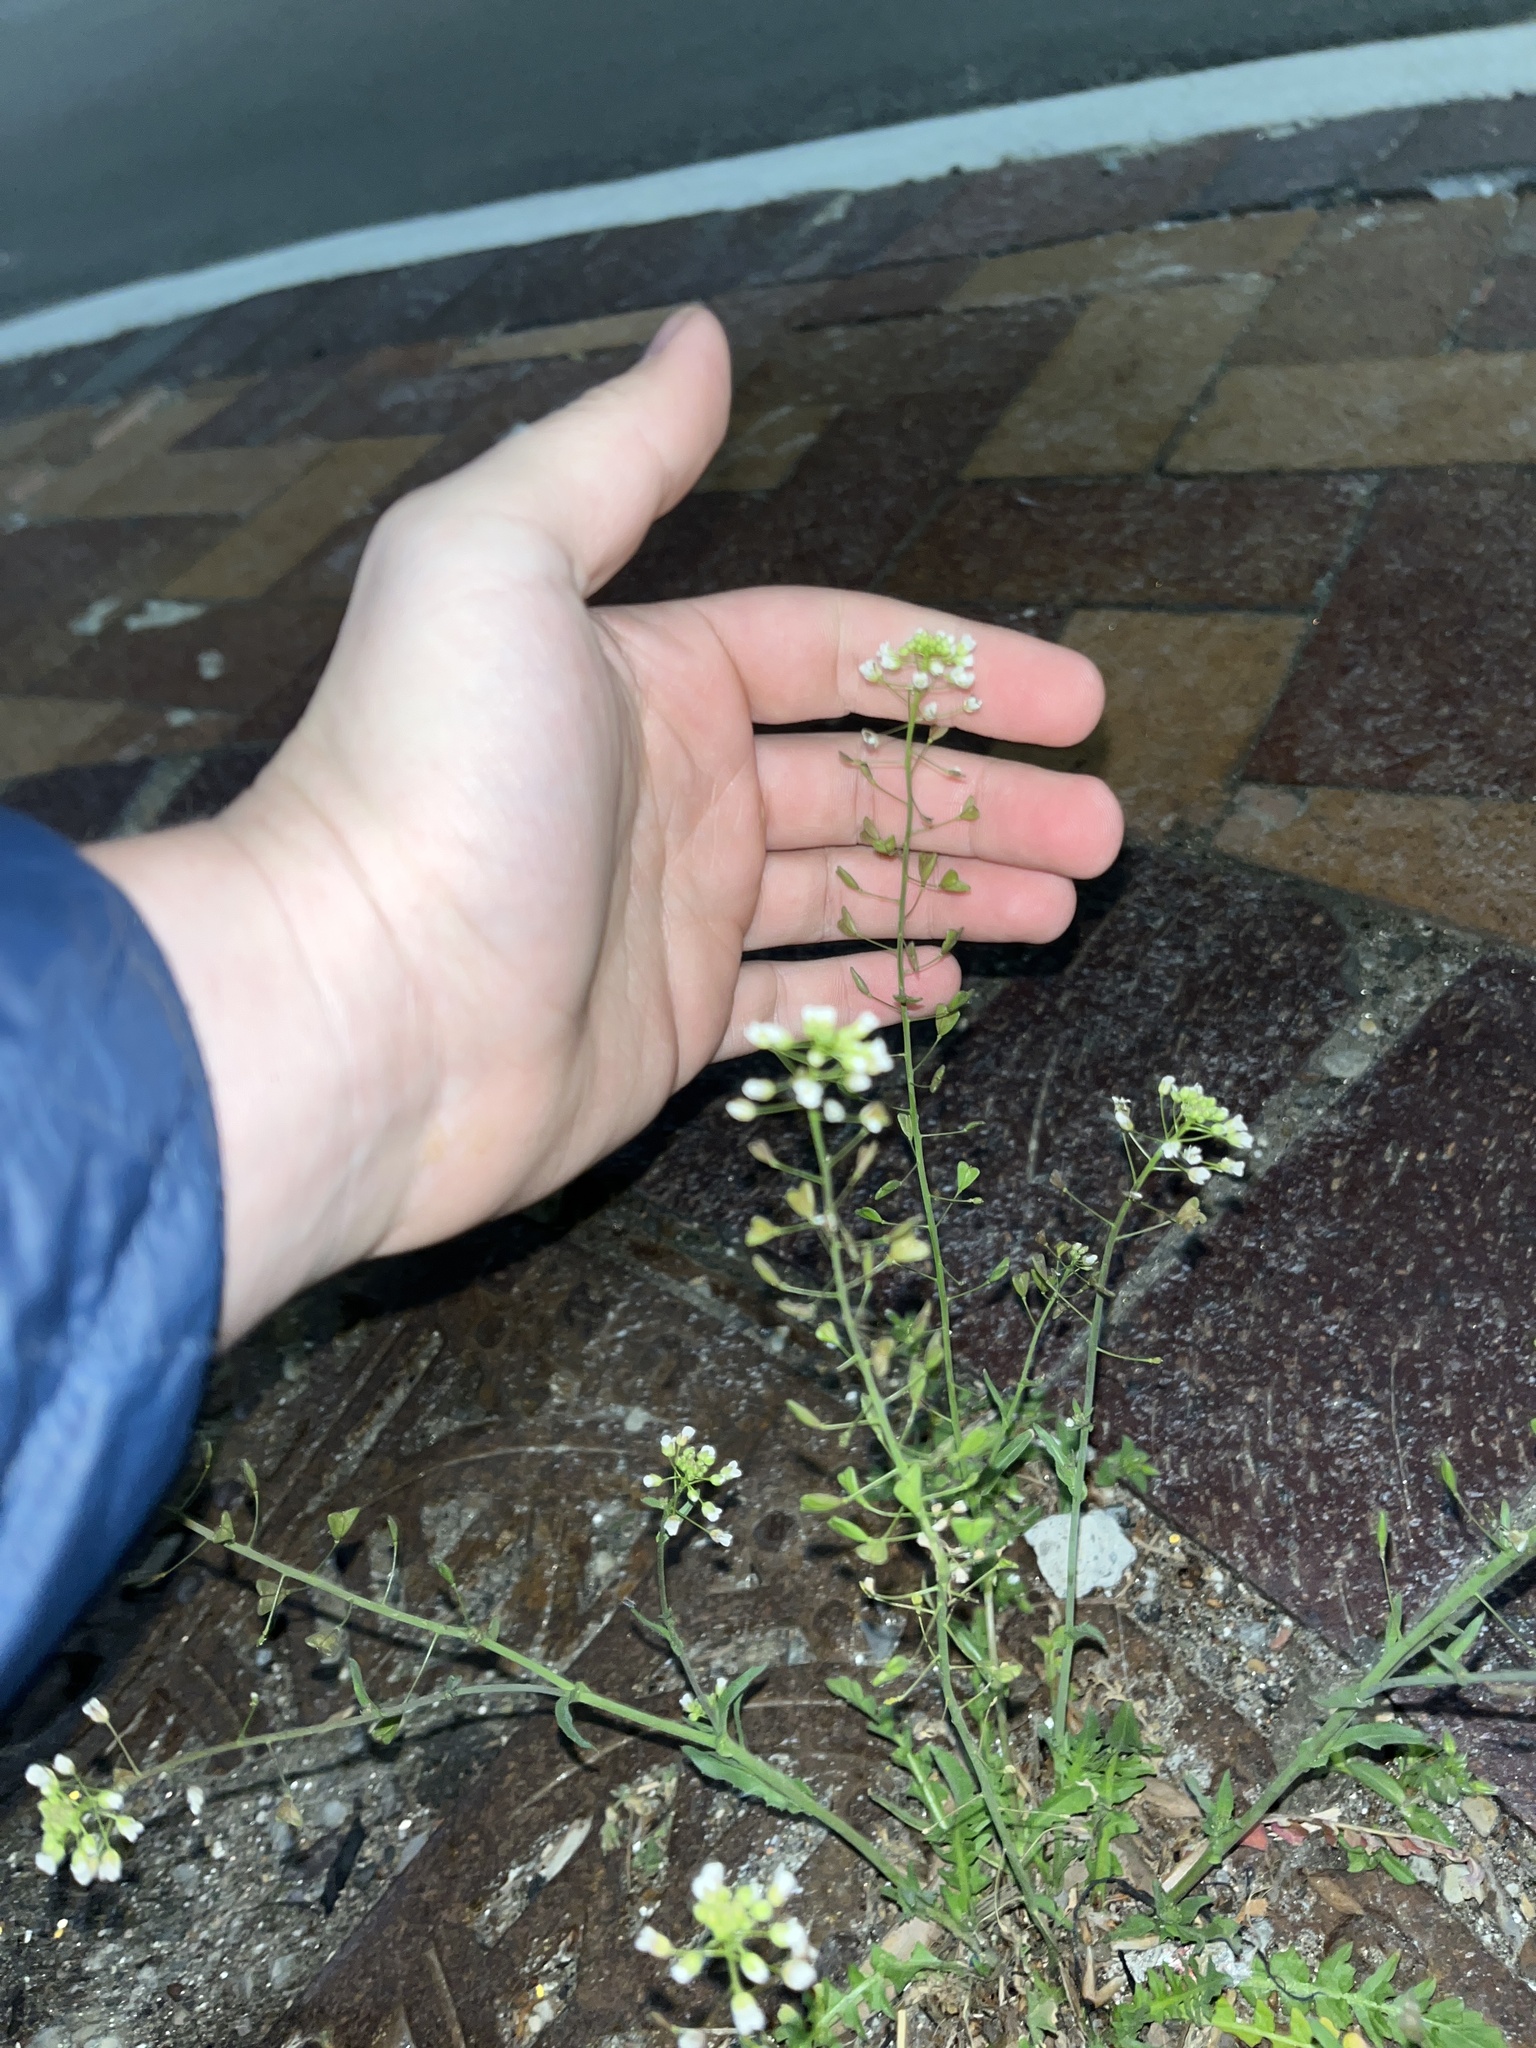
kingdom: Plantae
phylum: Tracheophyta
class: Magnoliopsida
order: Brassicales
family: Brassicaceae
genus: Capsella
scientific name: Capsella bursa-pastoris
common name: Shepherd's purse
